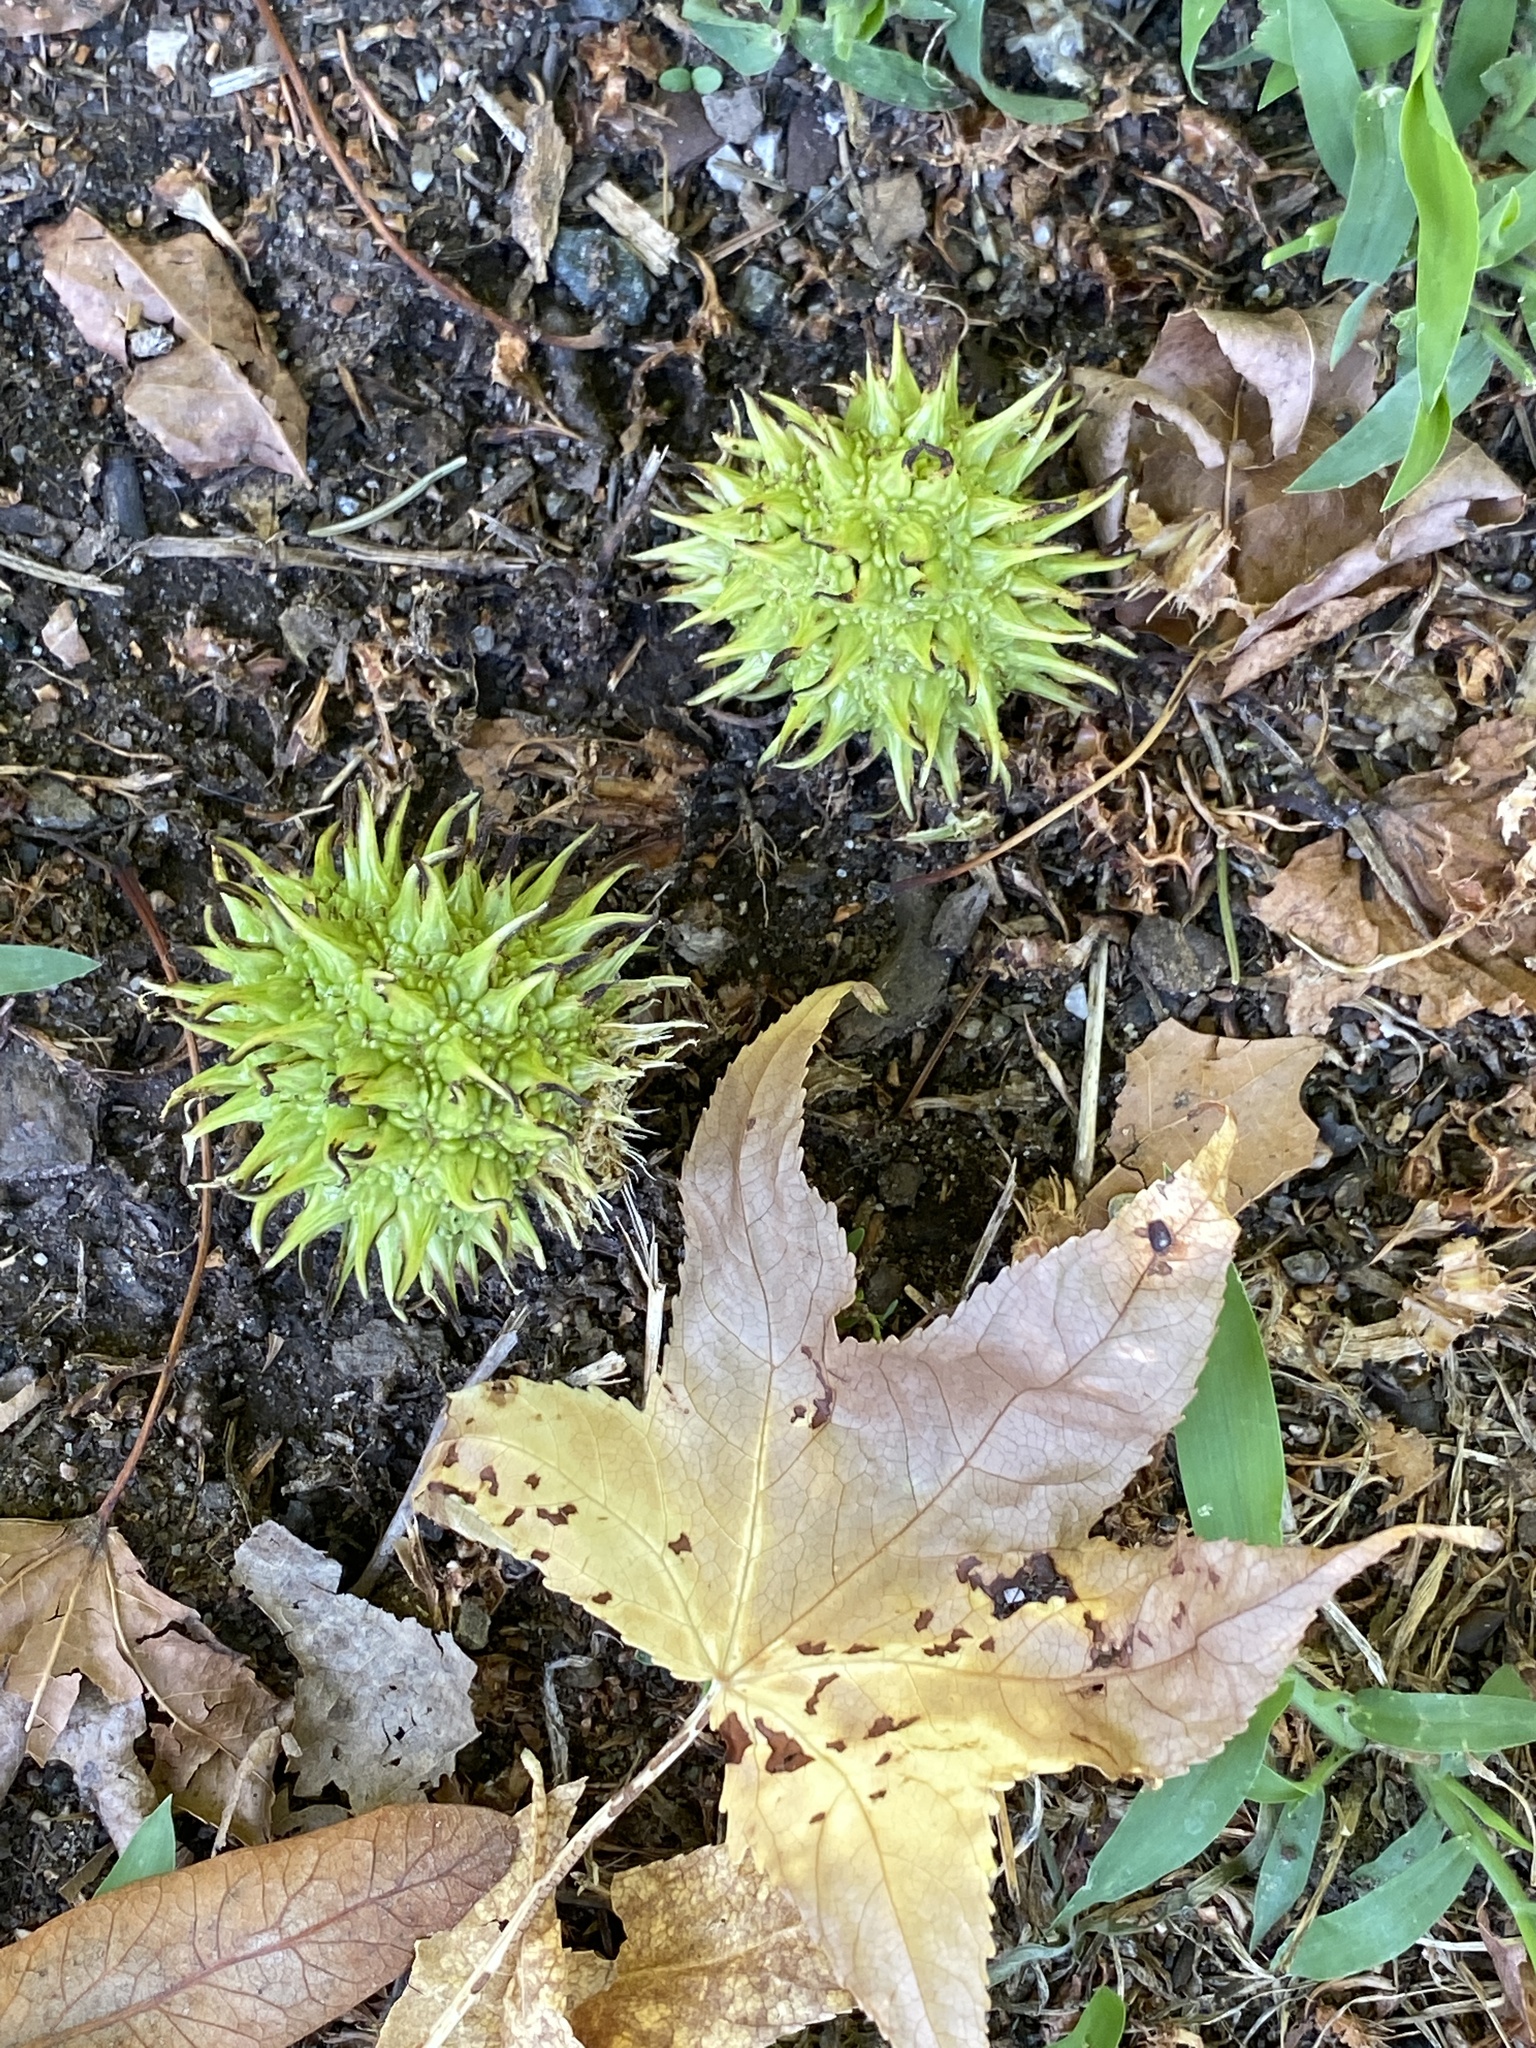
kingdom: Plantae
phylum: Tracheophyta
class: Magnoliopsida
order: Saxifragales
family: Altingiaceae
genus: Liquidambar
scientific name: Liquidambar styraciflua
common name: Sweet gum
